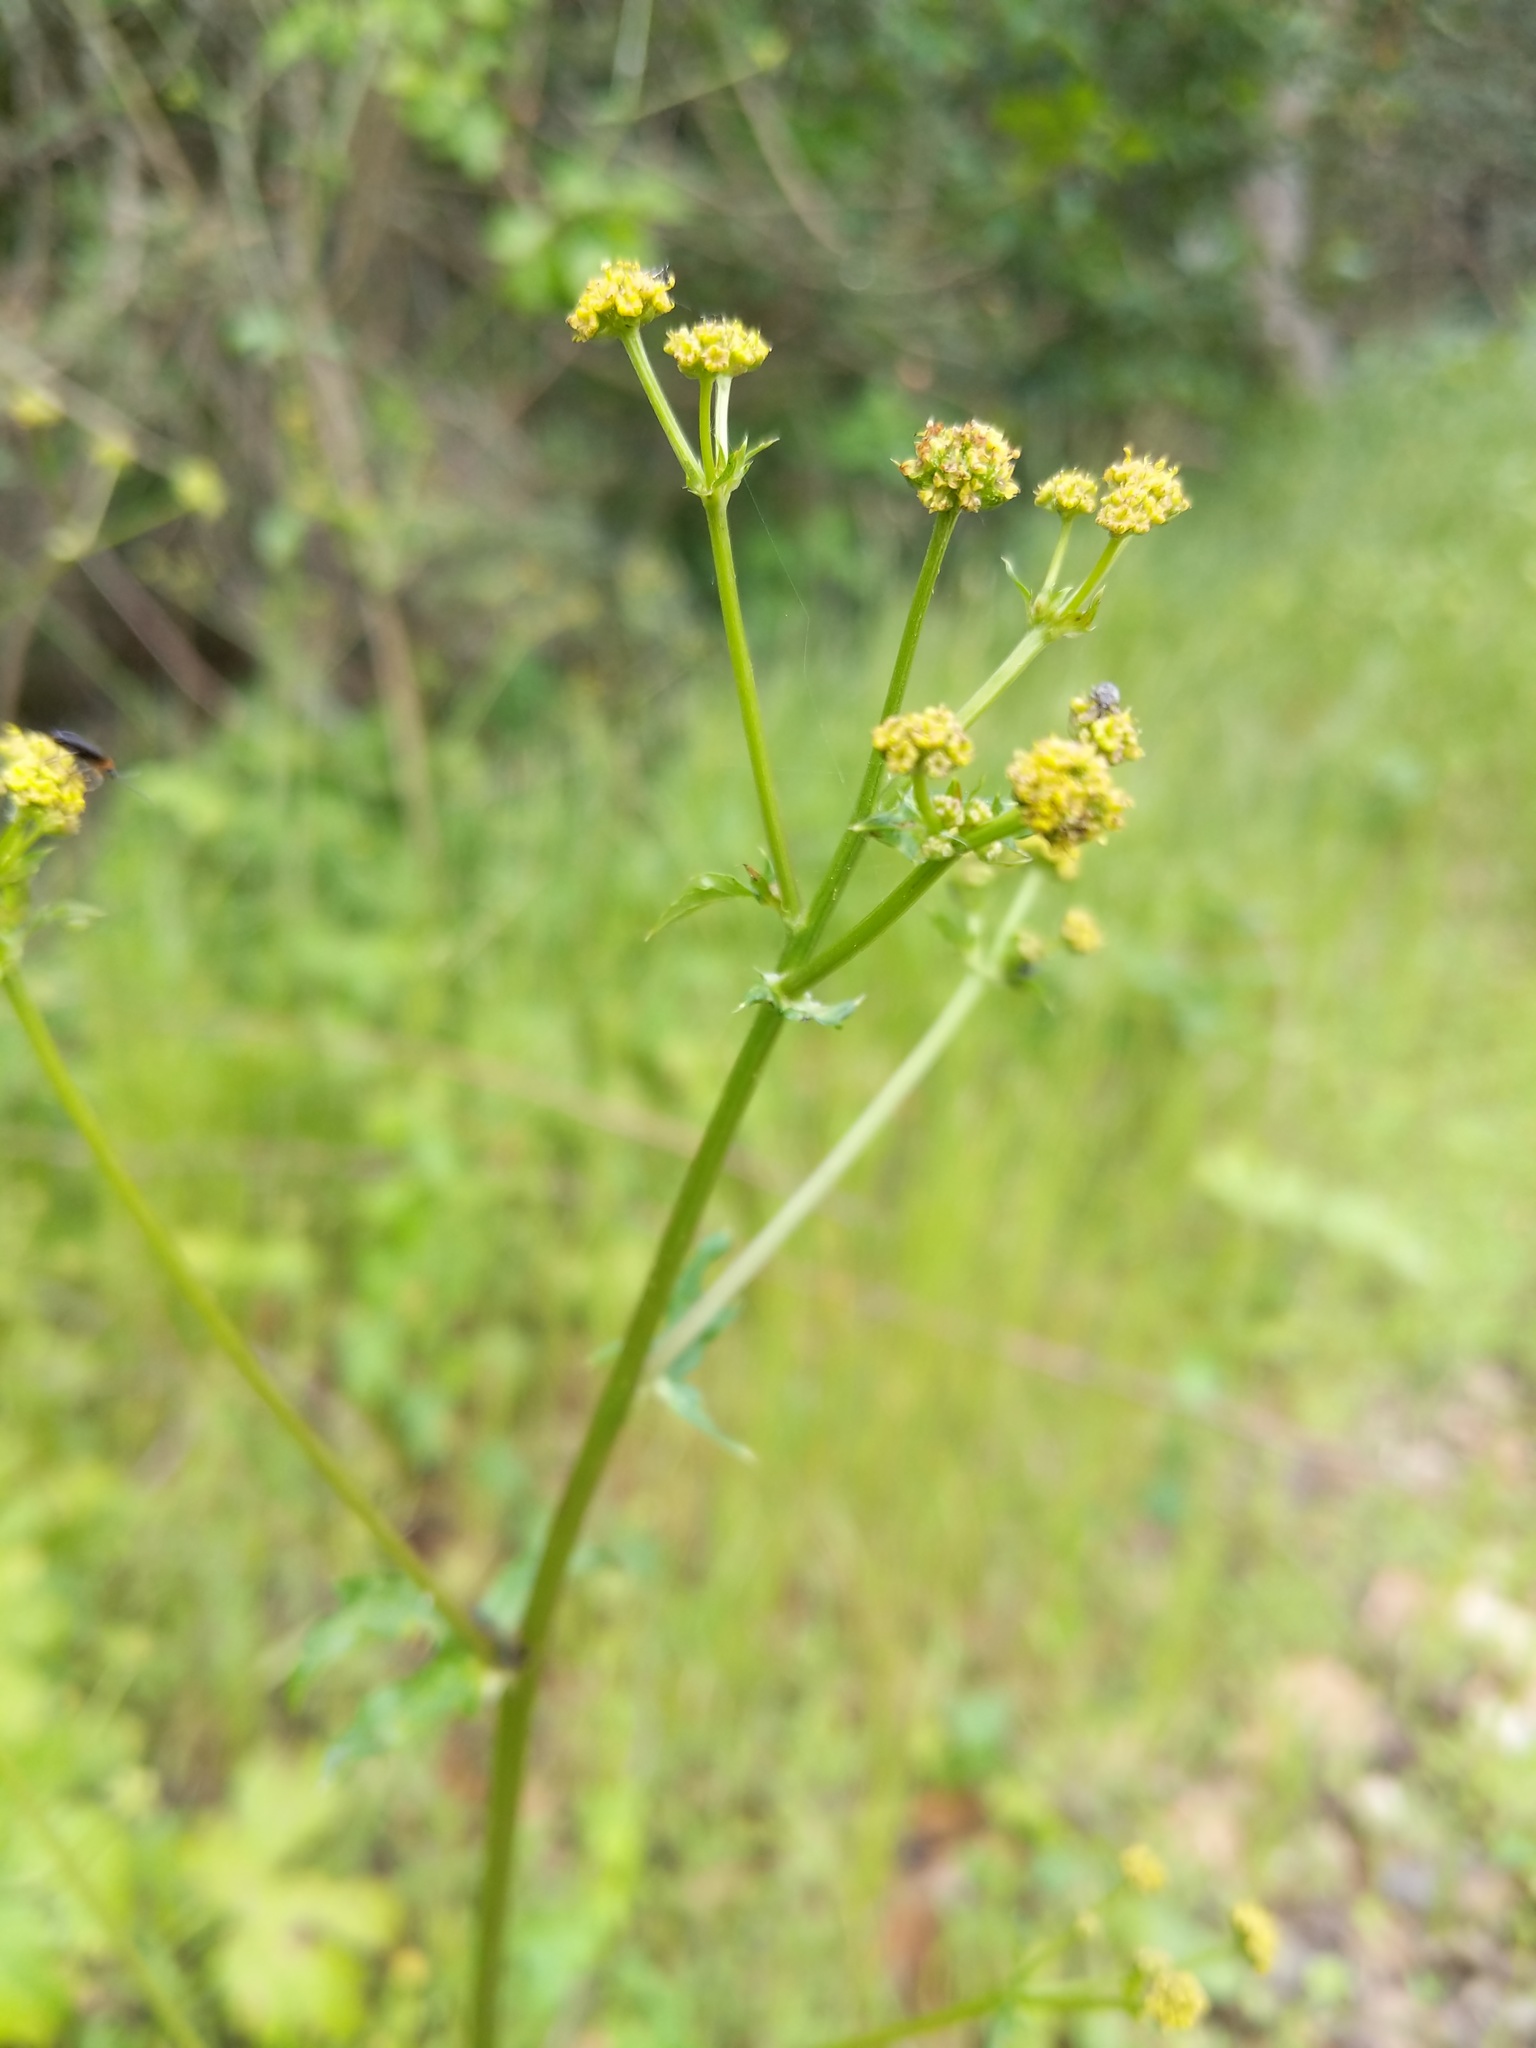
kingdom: Plantae
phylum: Tracheophyta
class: Magnoliopsida
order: Apiales
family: Apiaceae
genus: Sanicula
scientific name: Sanicula crassicaulis
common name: Western snakeroot
